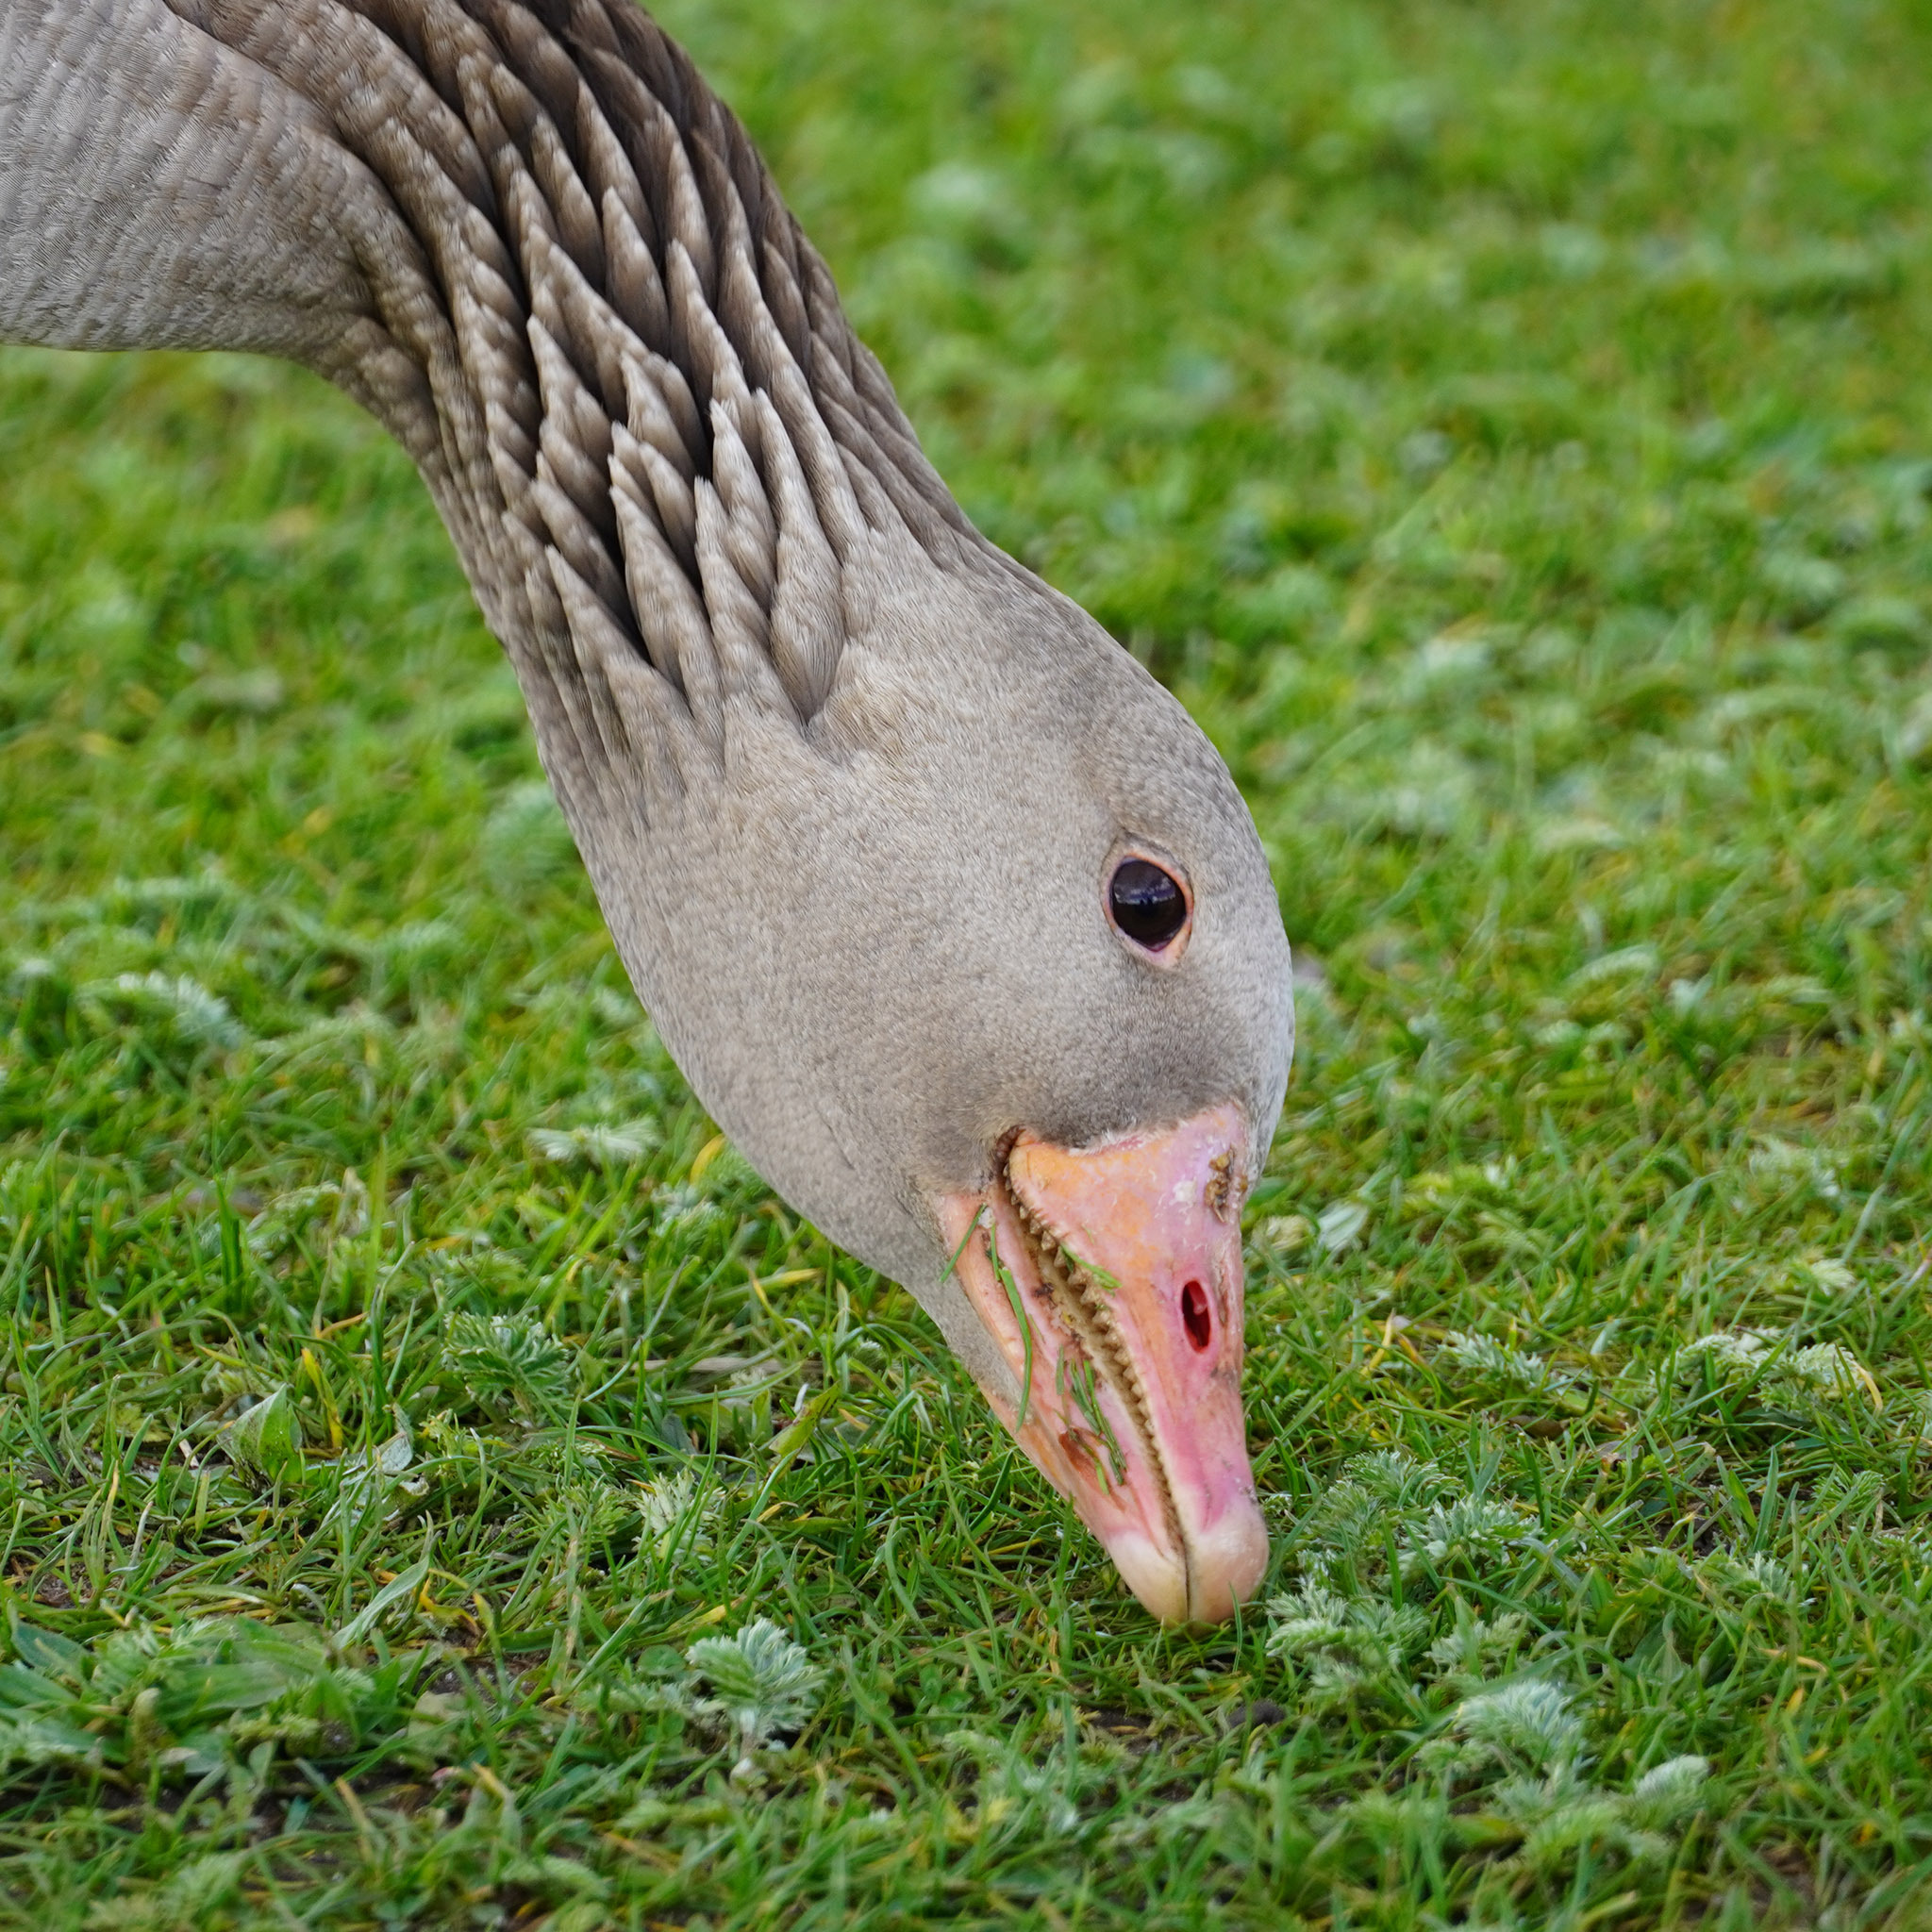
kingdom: Animalia
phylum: Chordata
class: Aves
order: Anseriformes
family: Anatidae
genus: Anser
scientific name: Anser anser
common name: Greylag goose
